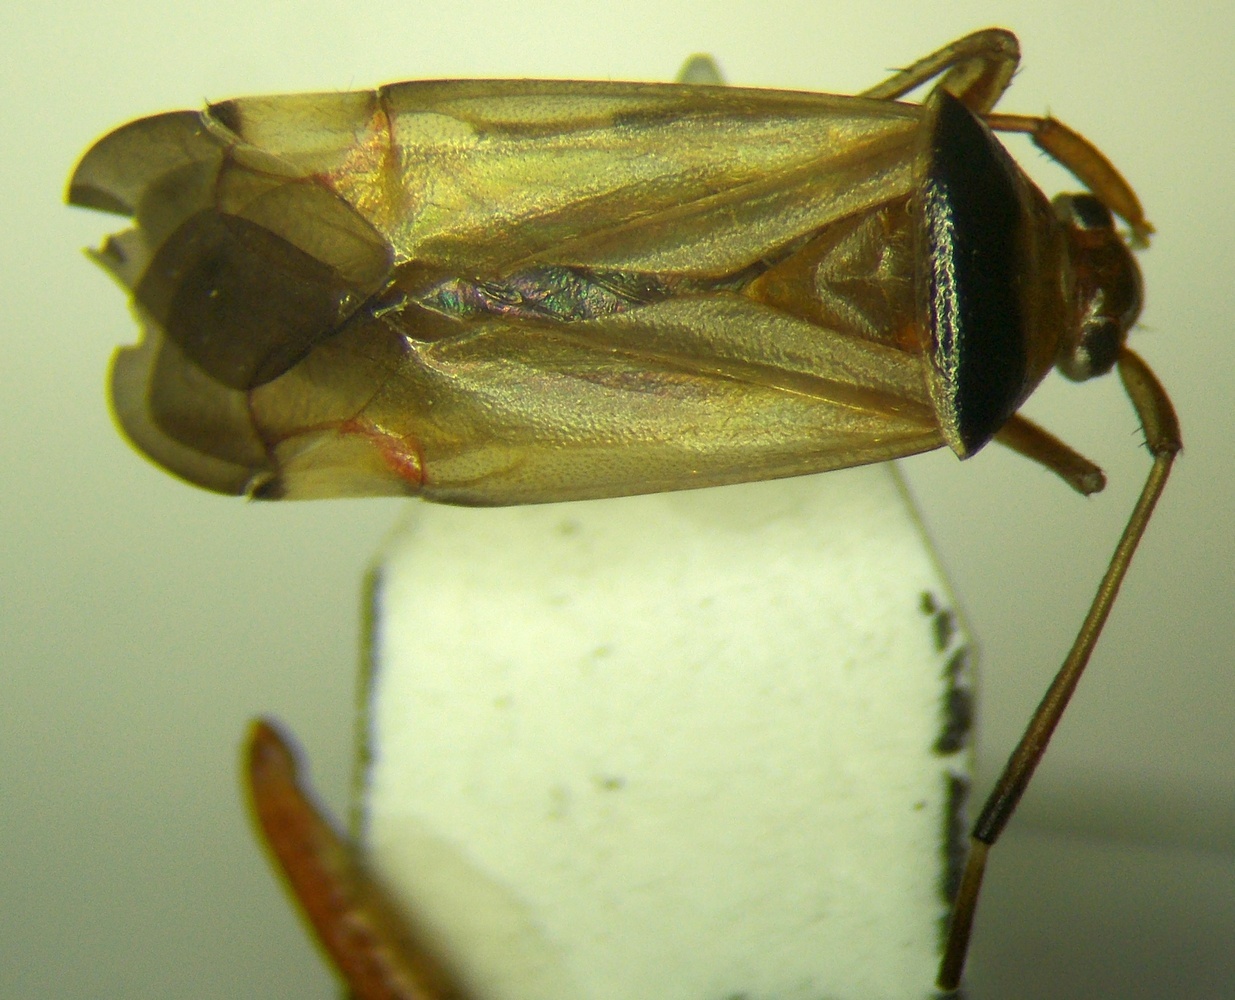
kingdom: Animalia
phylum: Arthropoda
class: Insecta
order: Hemiptera
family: Miridae
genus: Adelphocoris
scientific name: Adelphocoris vandalicus
